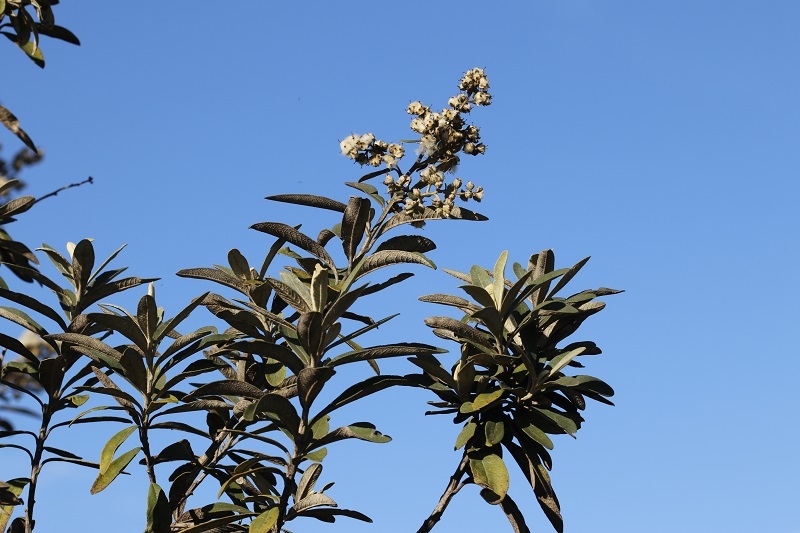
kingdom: Plantae
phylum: Tracheophyta
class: Magnoliopsida
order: Asterales
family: Asteraceae
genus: Tarchonanthus
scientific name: Tarchonanthus littoralis
